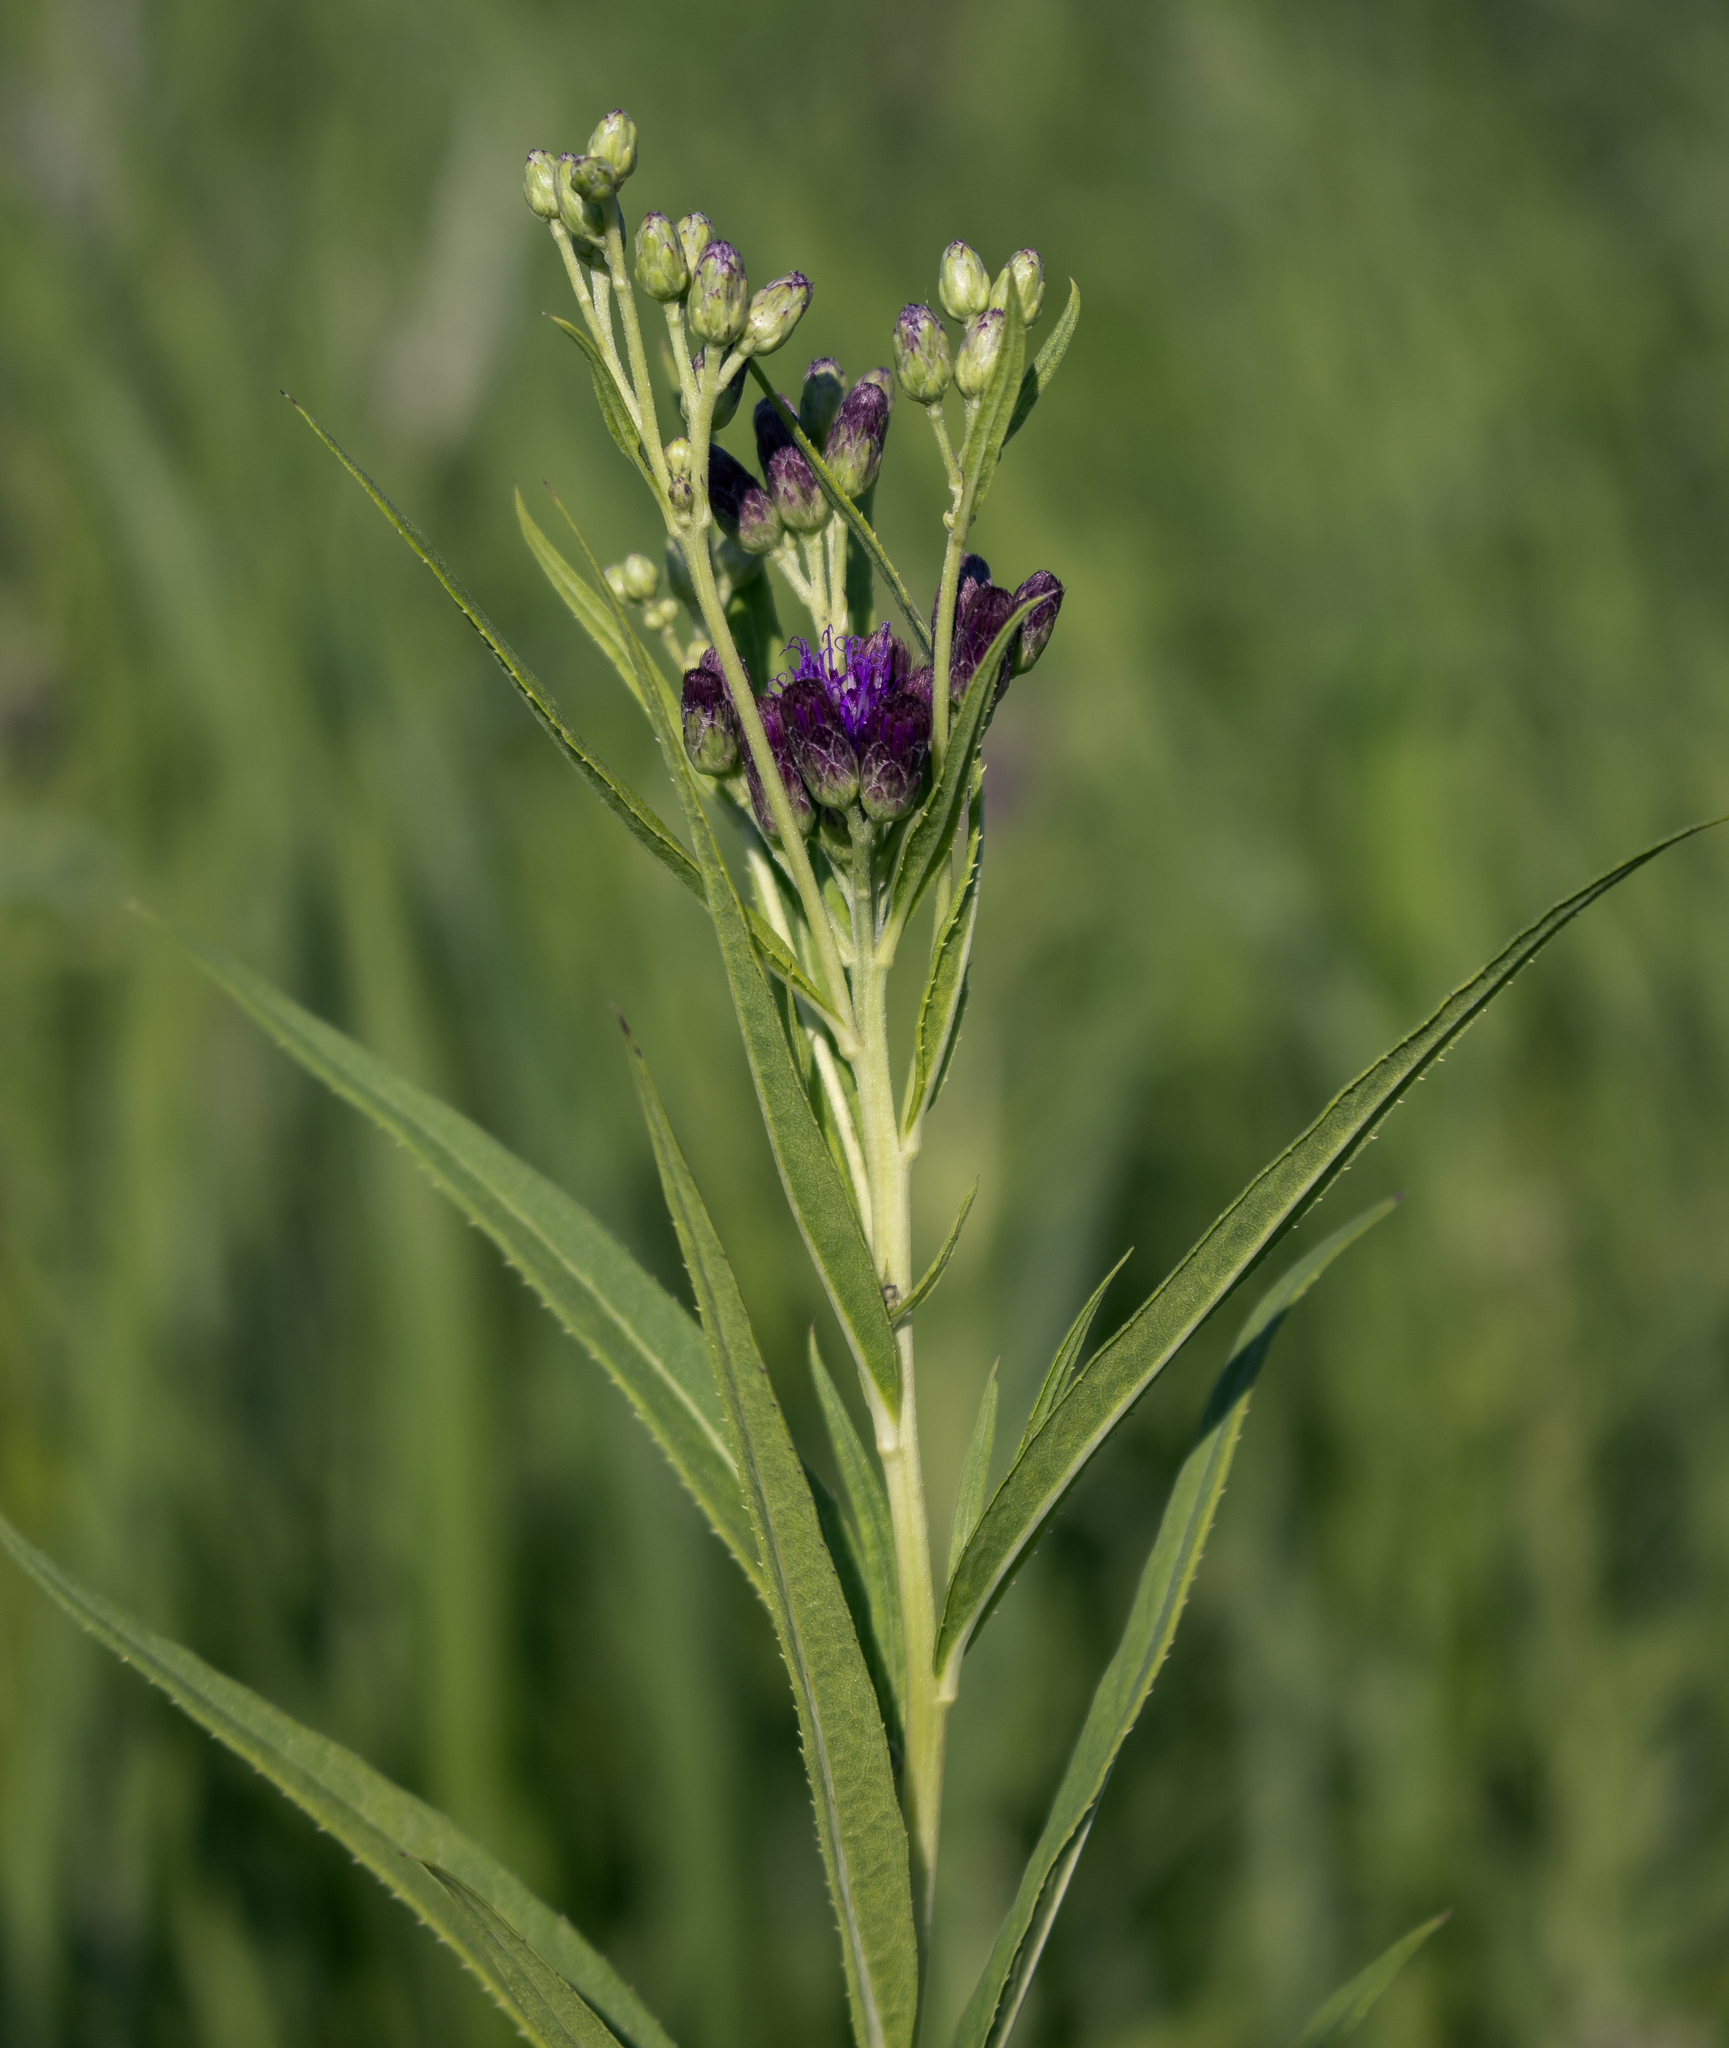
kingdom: Plantae
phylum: Tracheophyta
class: Magnoliopsida
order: Asterales
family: Asteraceae
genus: Vernonia
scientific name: Vernonia fasciculata
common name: Fascicled ironweed
